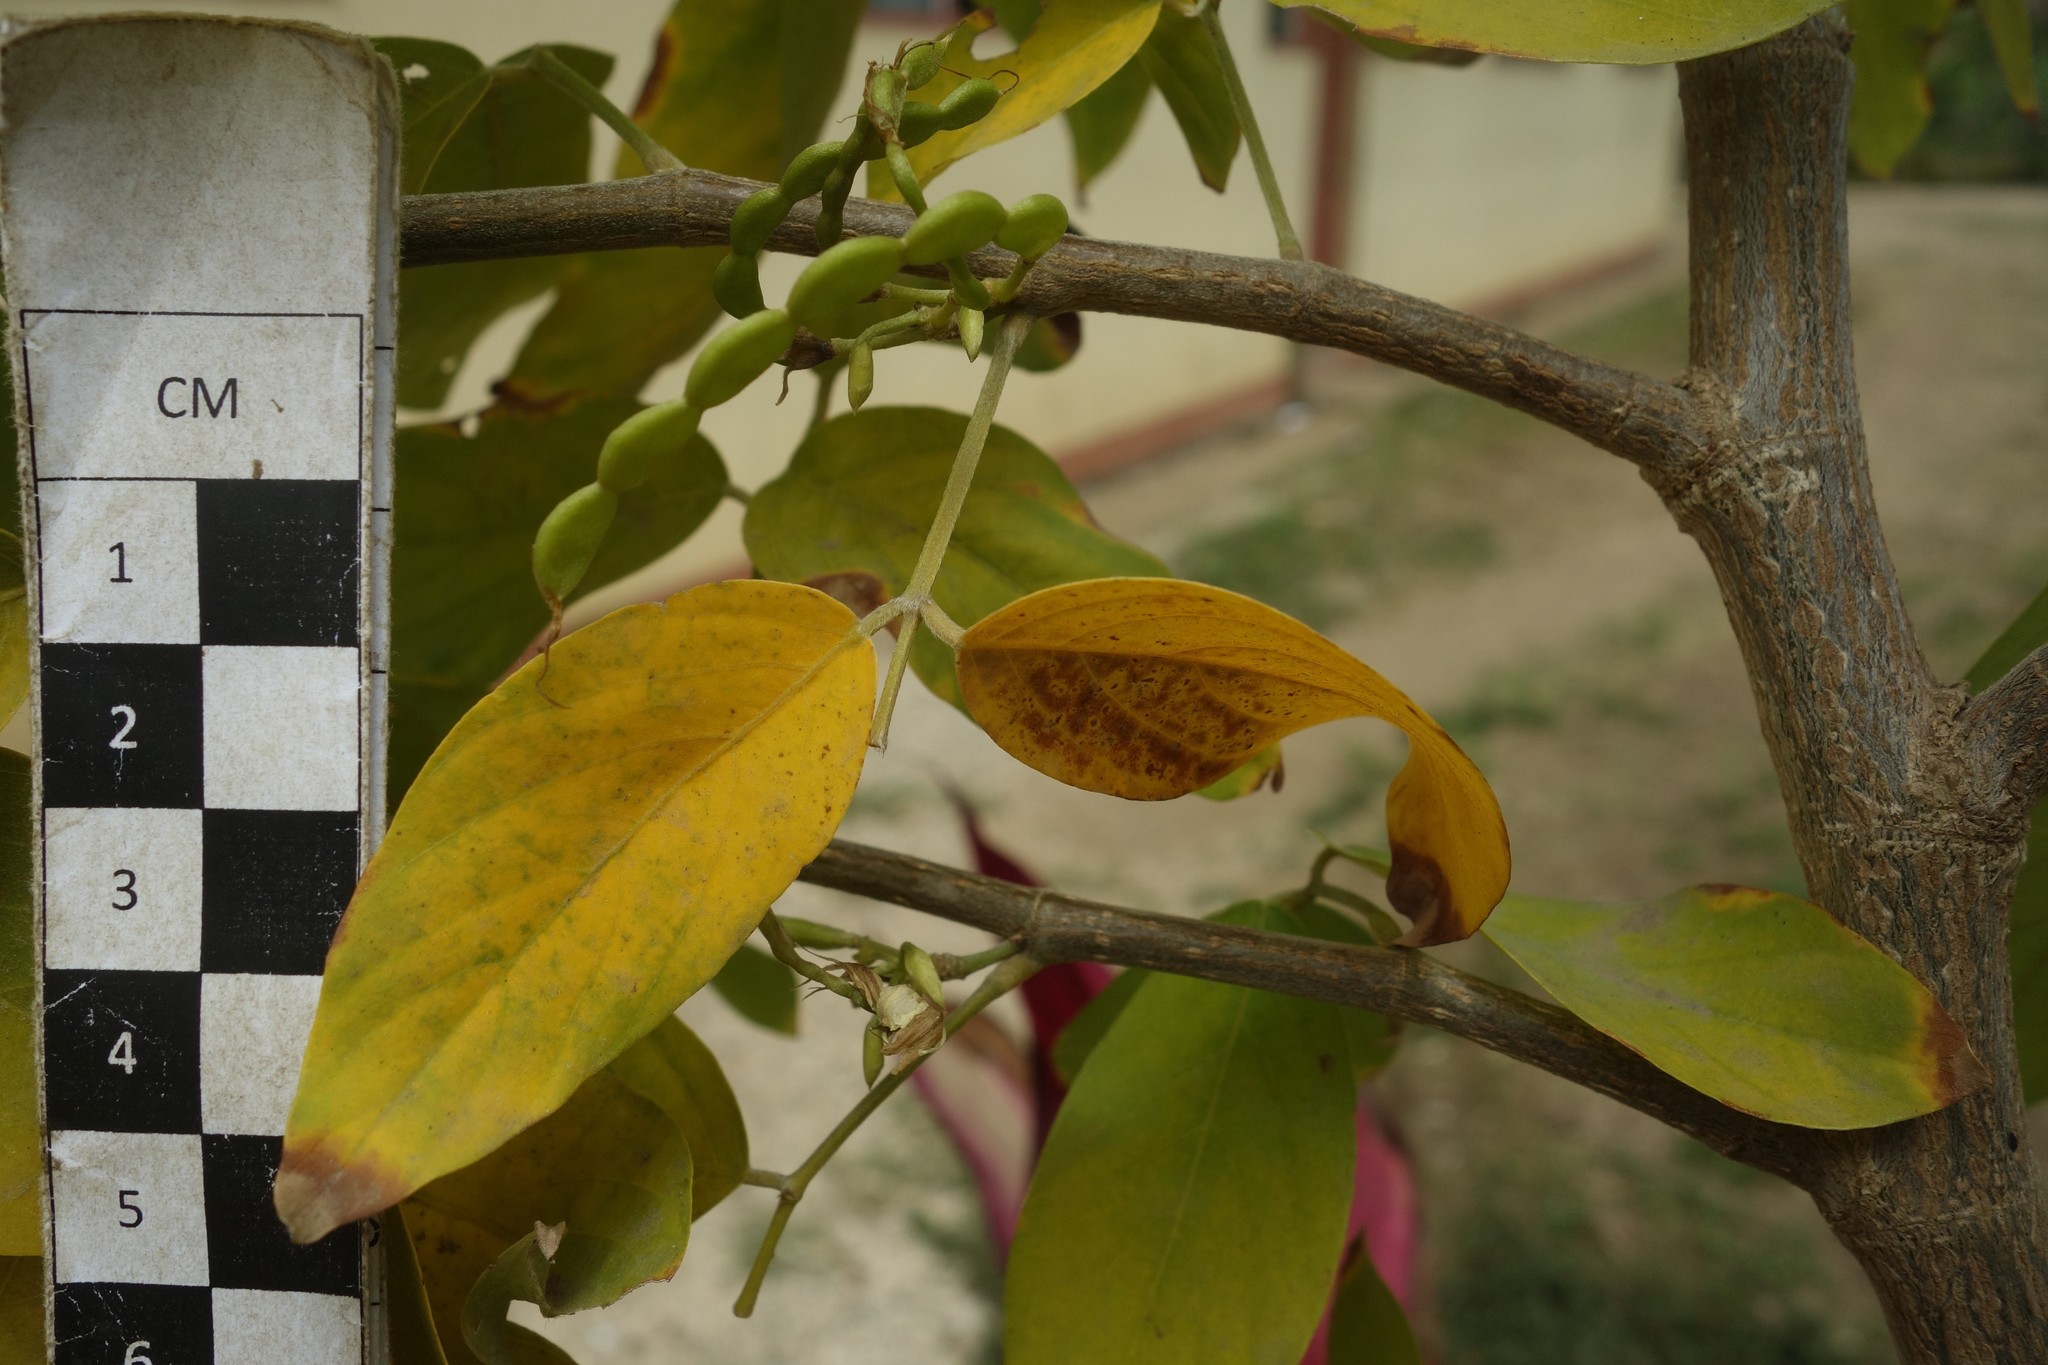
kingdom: Plantae
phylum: Tracheophyta
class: Magnoliopsida
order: Fabales
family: Fabaceae
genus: Dendrolobium
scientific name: Dendrolobium umbellatum
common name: Horsebush
